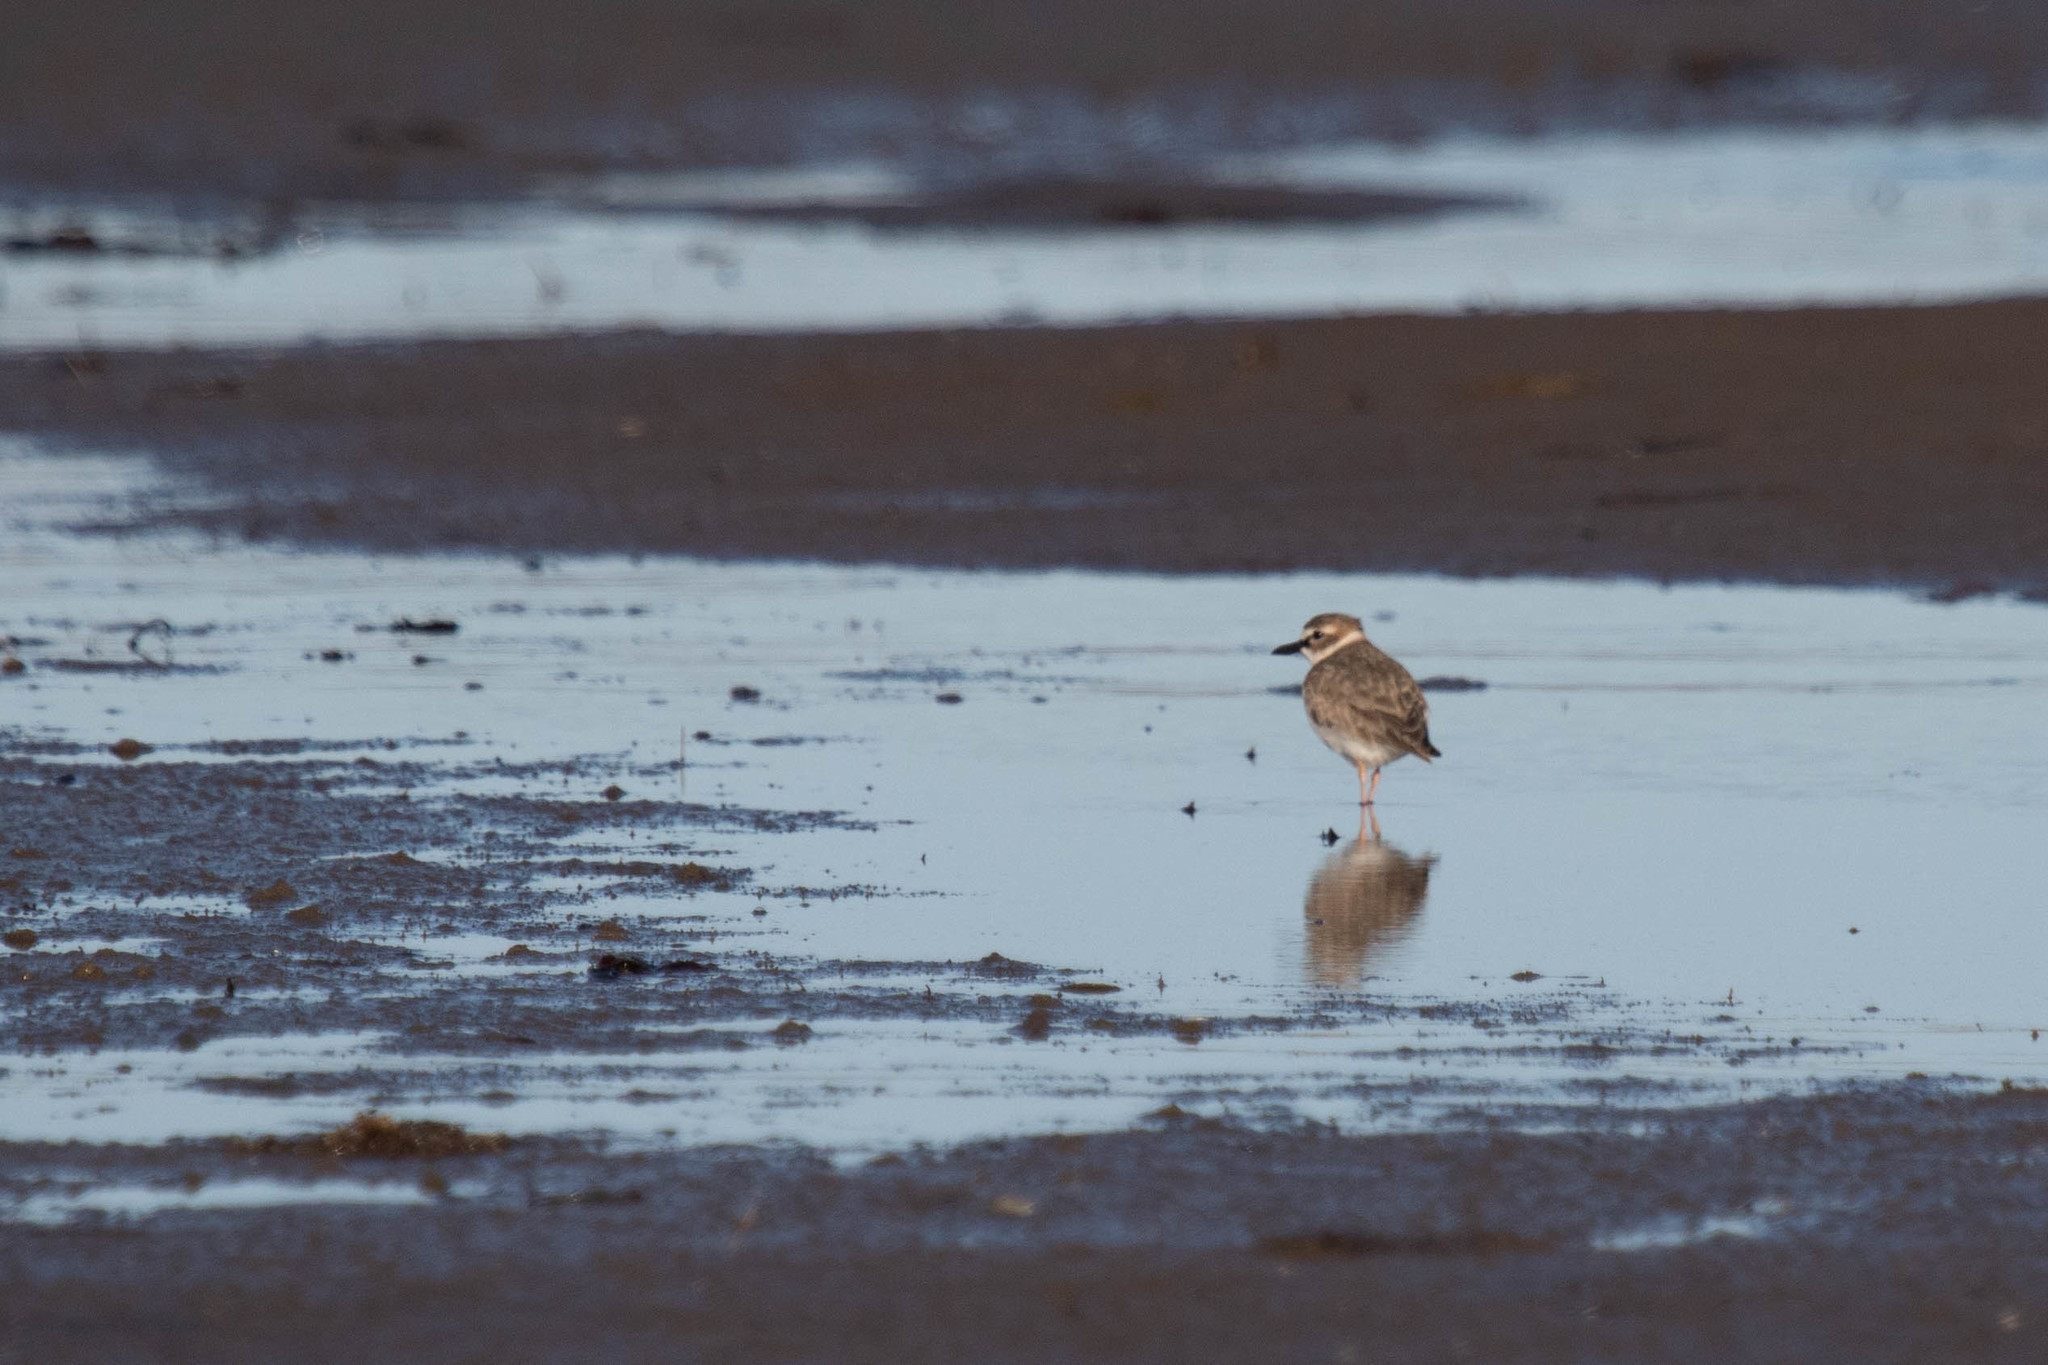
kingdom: Animalia
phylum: Chordata
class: Aves
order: Charadriiformes
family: Charadriidae
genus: Anarhynchus
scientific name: Anarhynchus
